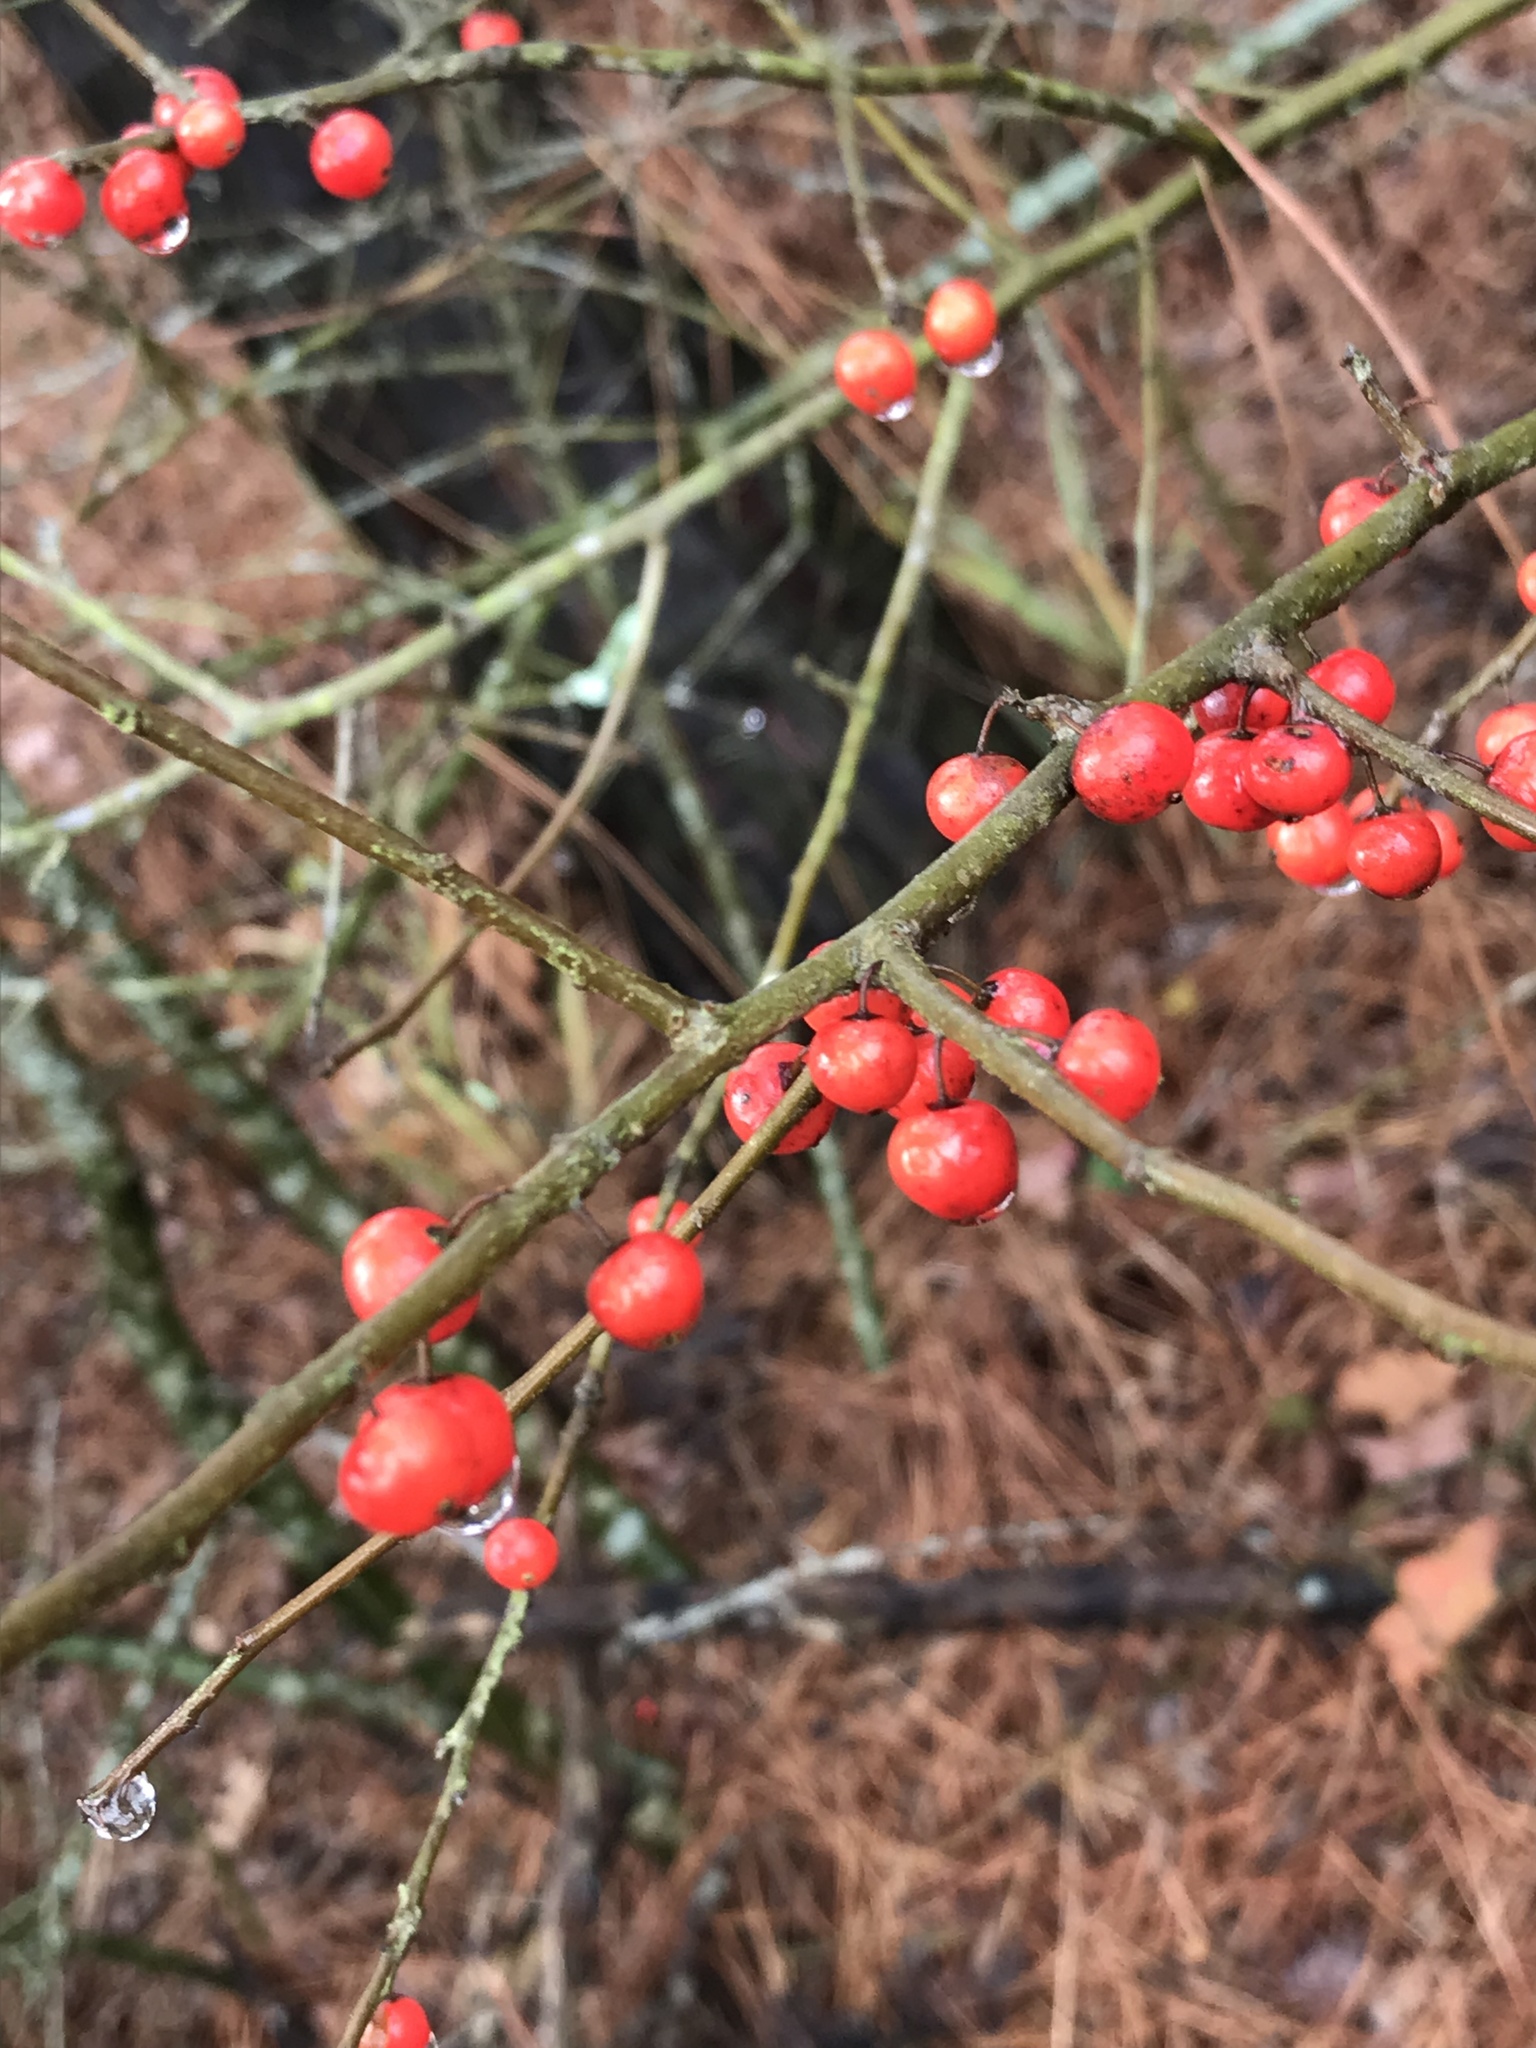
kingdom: Plantae
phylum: Tracheophyta
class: Magnoliopsida
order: Aquifoliales
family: Aquifoliaceae
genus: Ilex
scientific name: Ilex decidua
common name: Possum-haw
